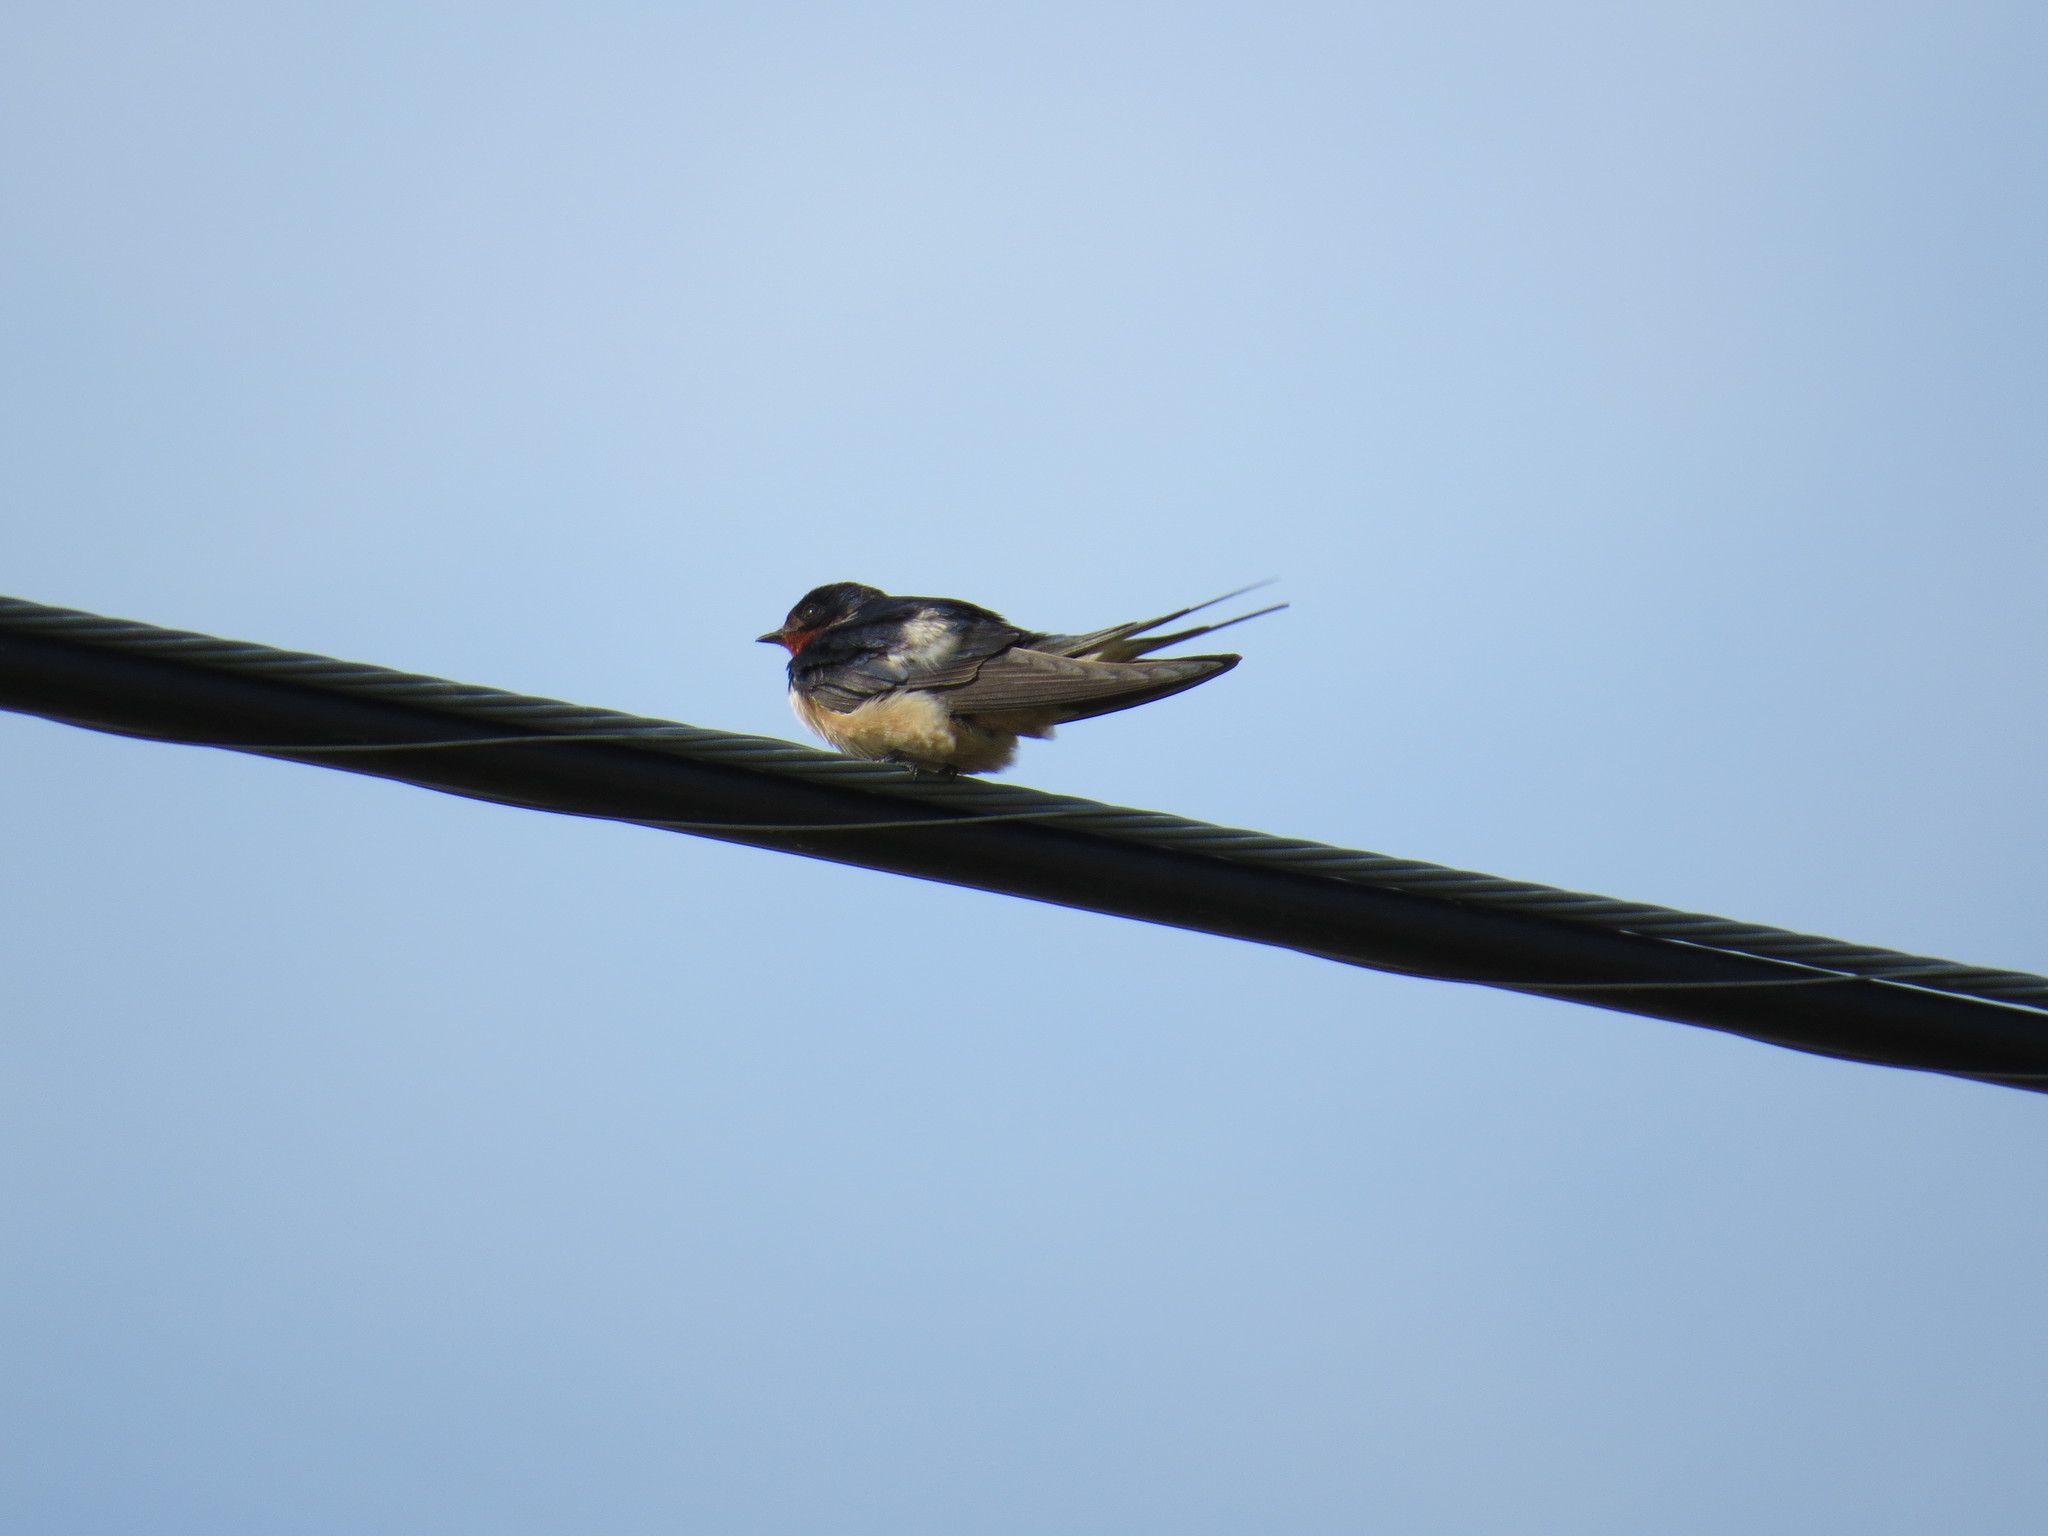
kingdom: Animalia
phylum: Chordata
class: Aves
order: Passeriformes
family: Hirundinidae
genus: Hirundo
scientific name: Hirundo rustica
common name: Barn swallow
